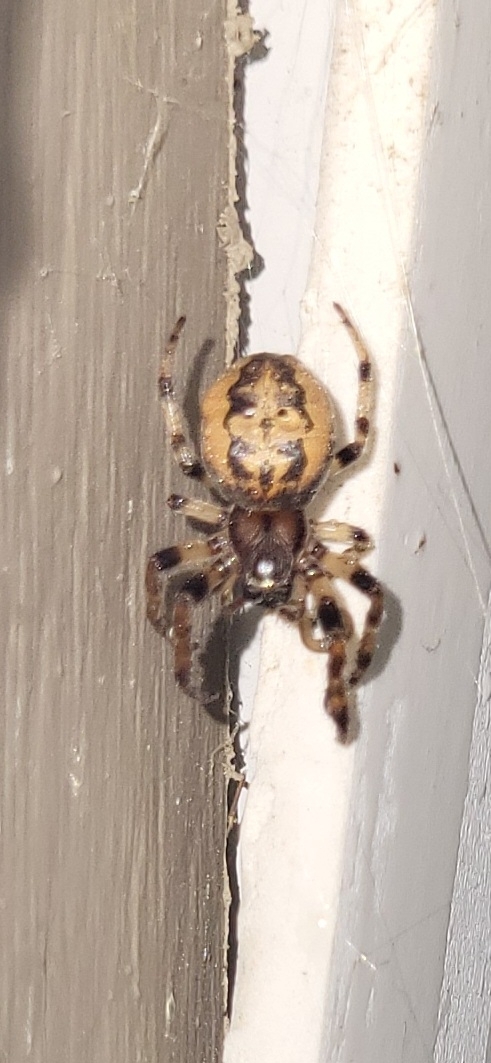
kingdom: Animalia
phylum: Arthropoda
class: Arachnida
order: Araneae
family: Araneidae
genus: Larinioides
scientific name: Larinioides cornutus
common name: Furrow orbweaver
